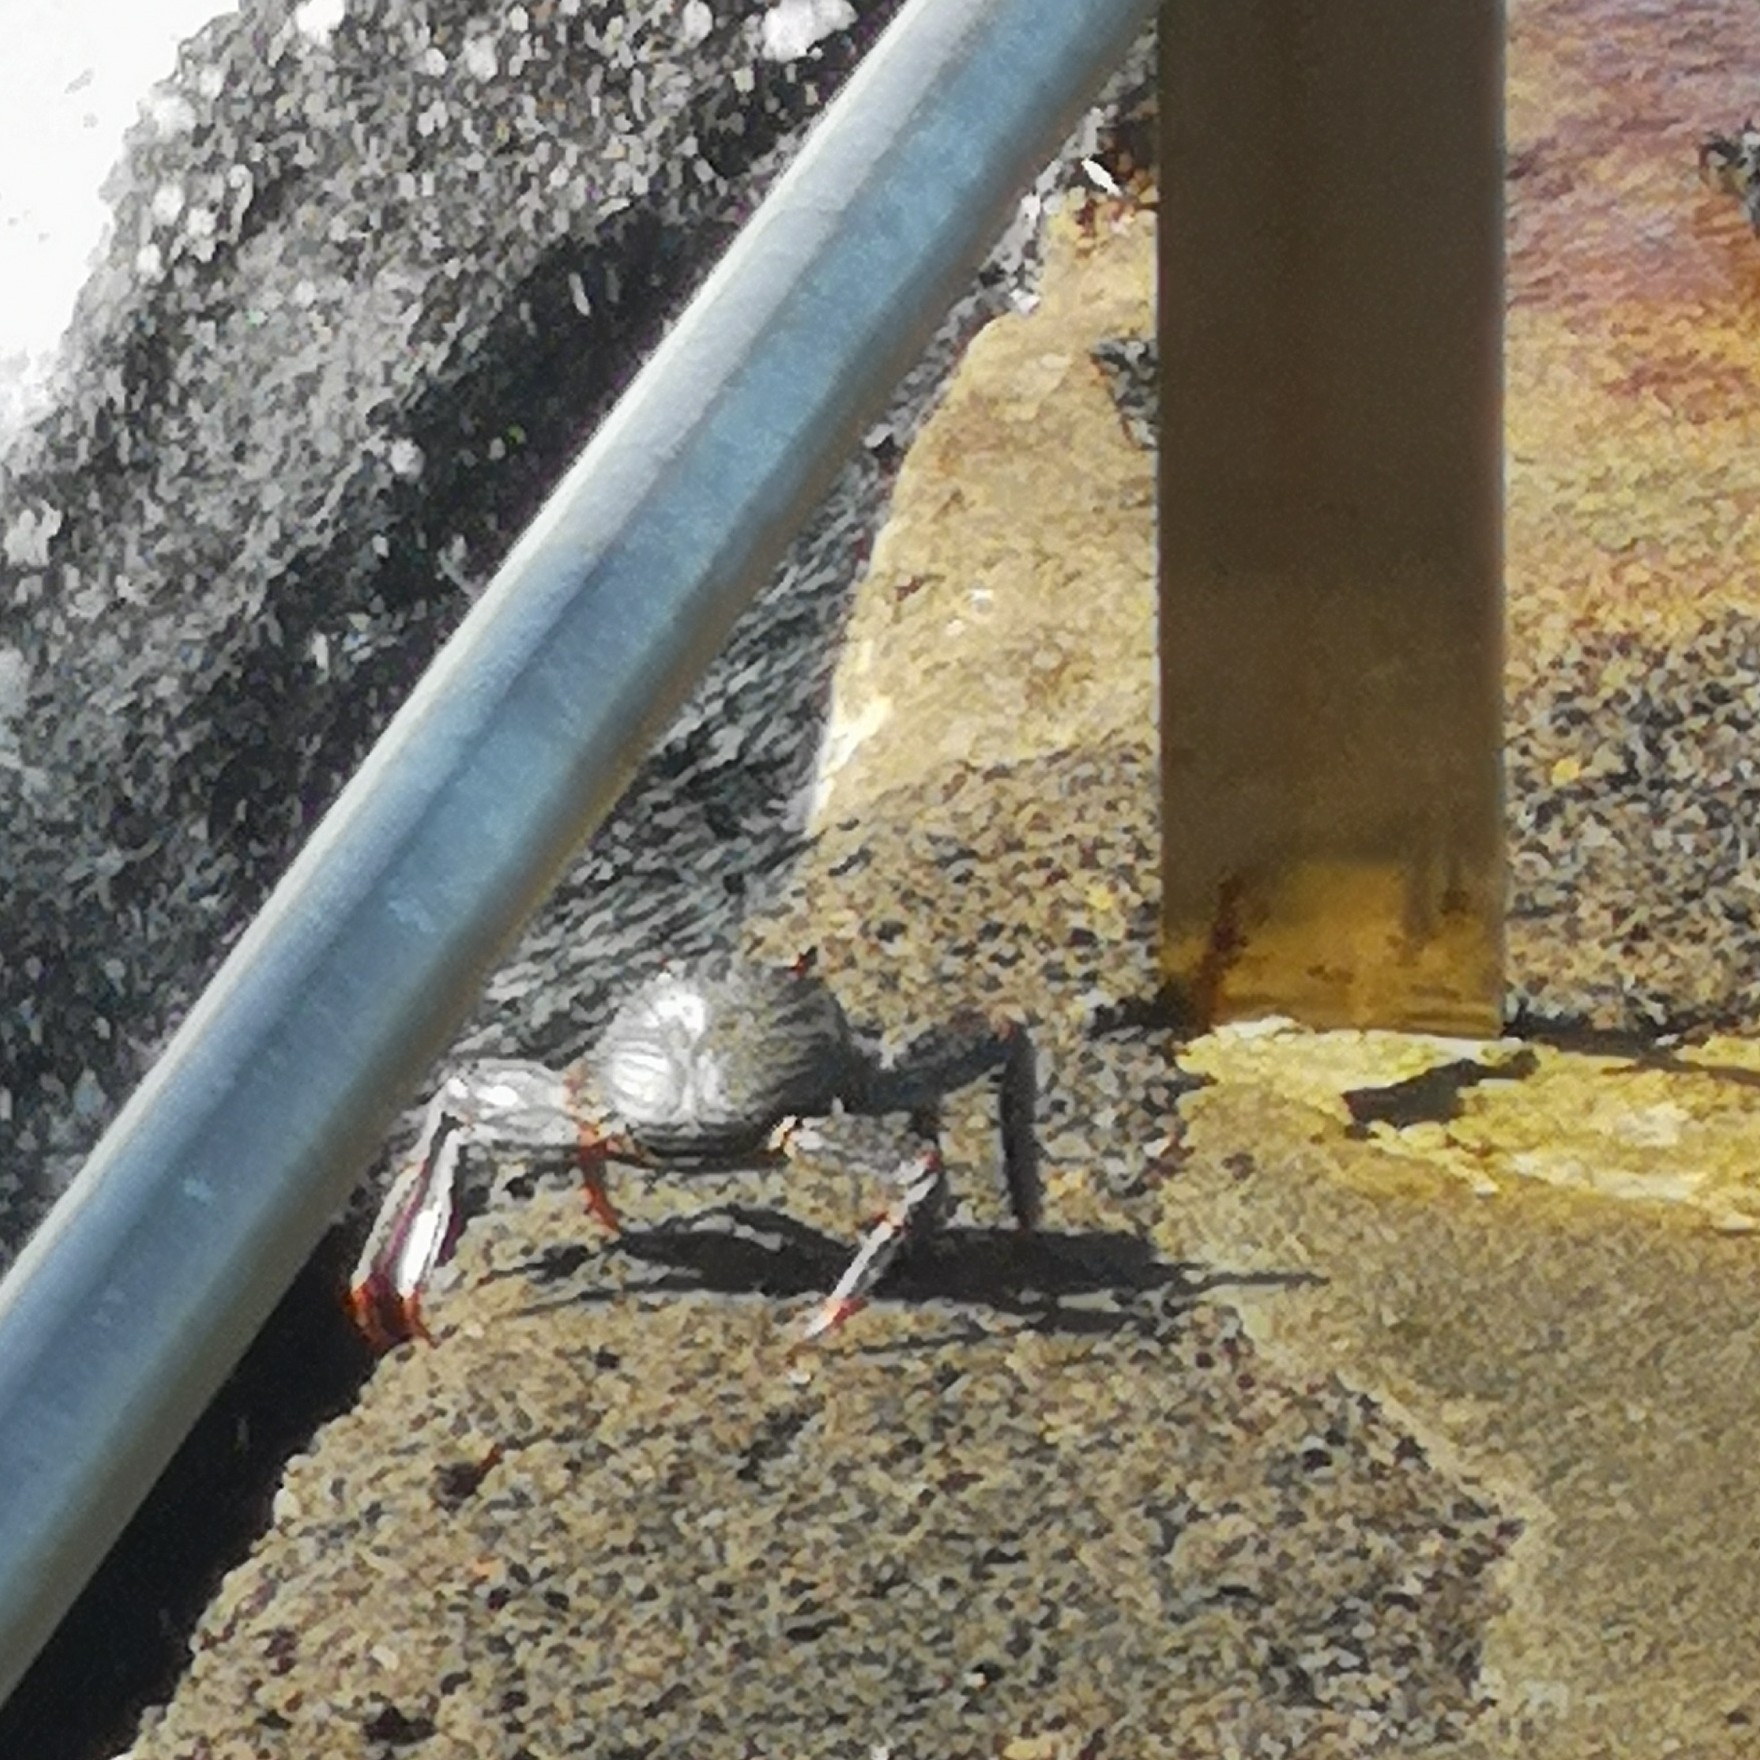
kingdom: Animalia
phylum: Arthropoda
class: Malacostraca
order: Decapoda
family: Grapsidae
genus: Grapsus
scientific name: Grapsus adscensionis
